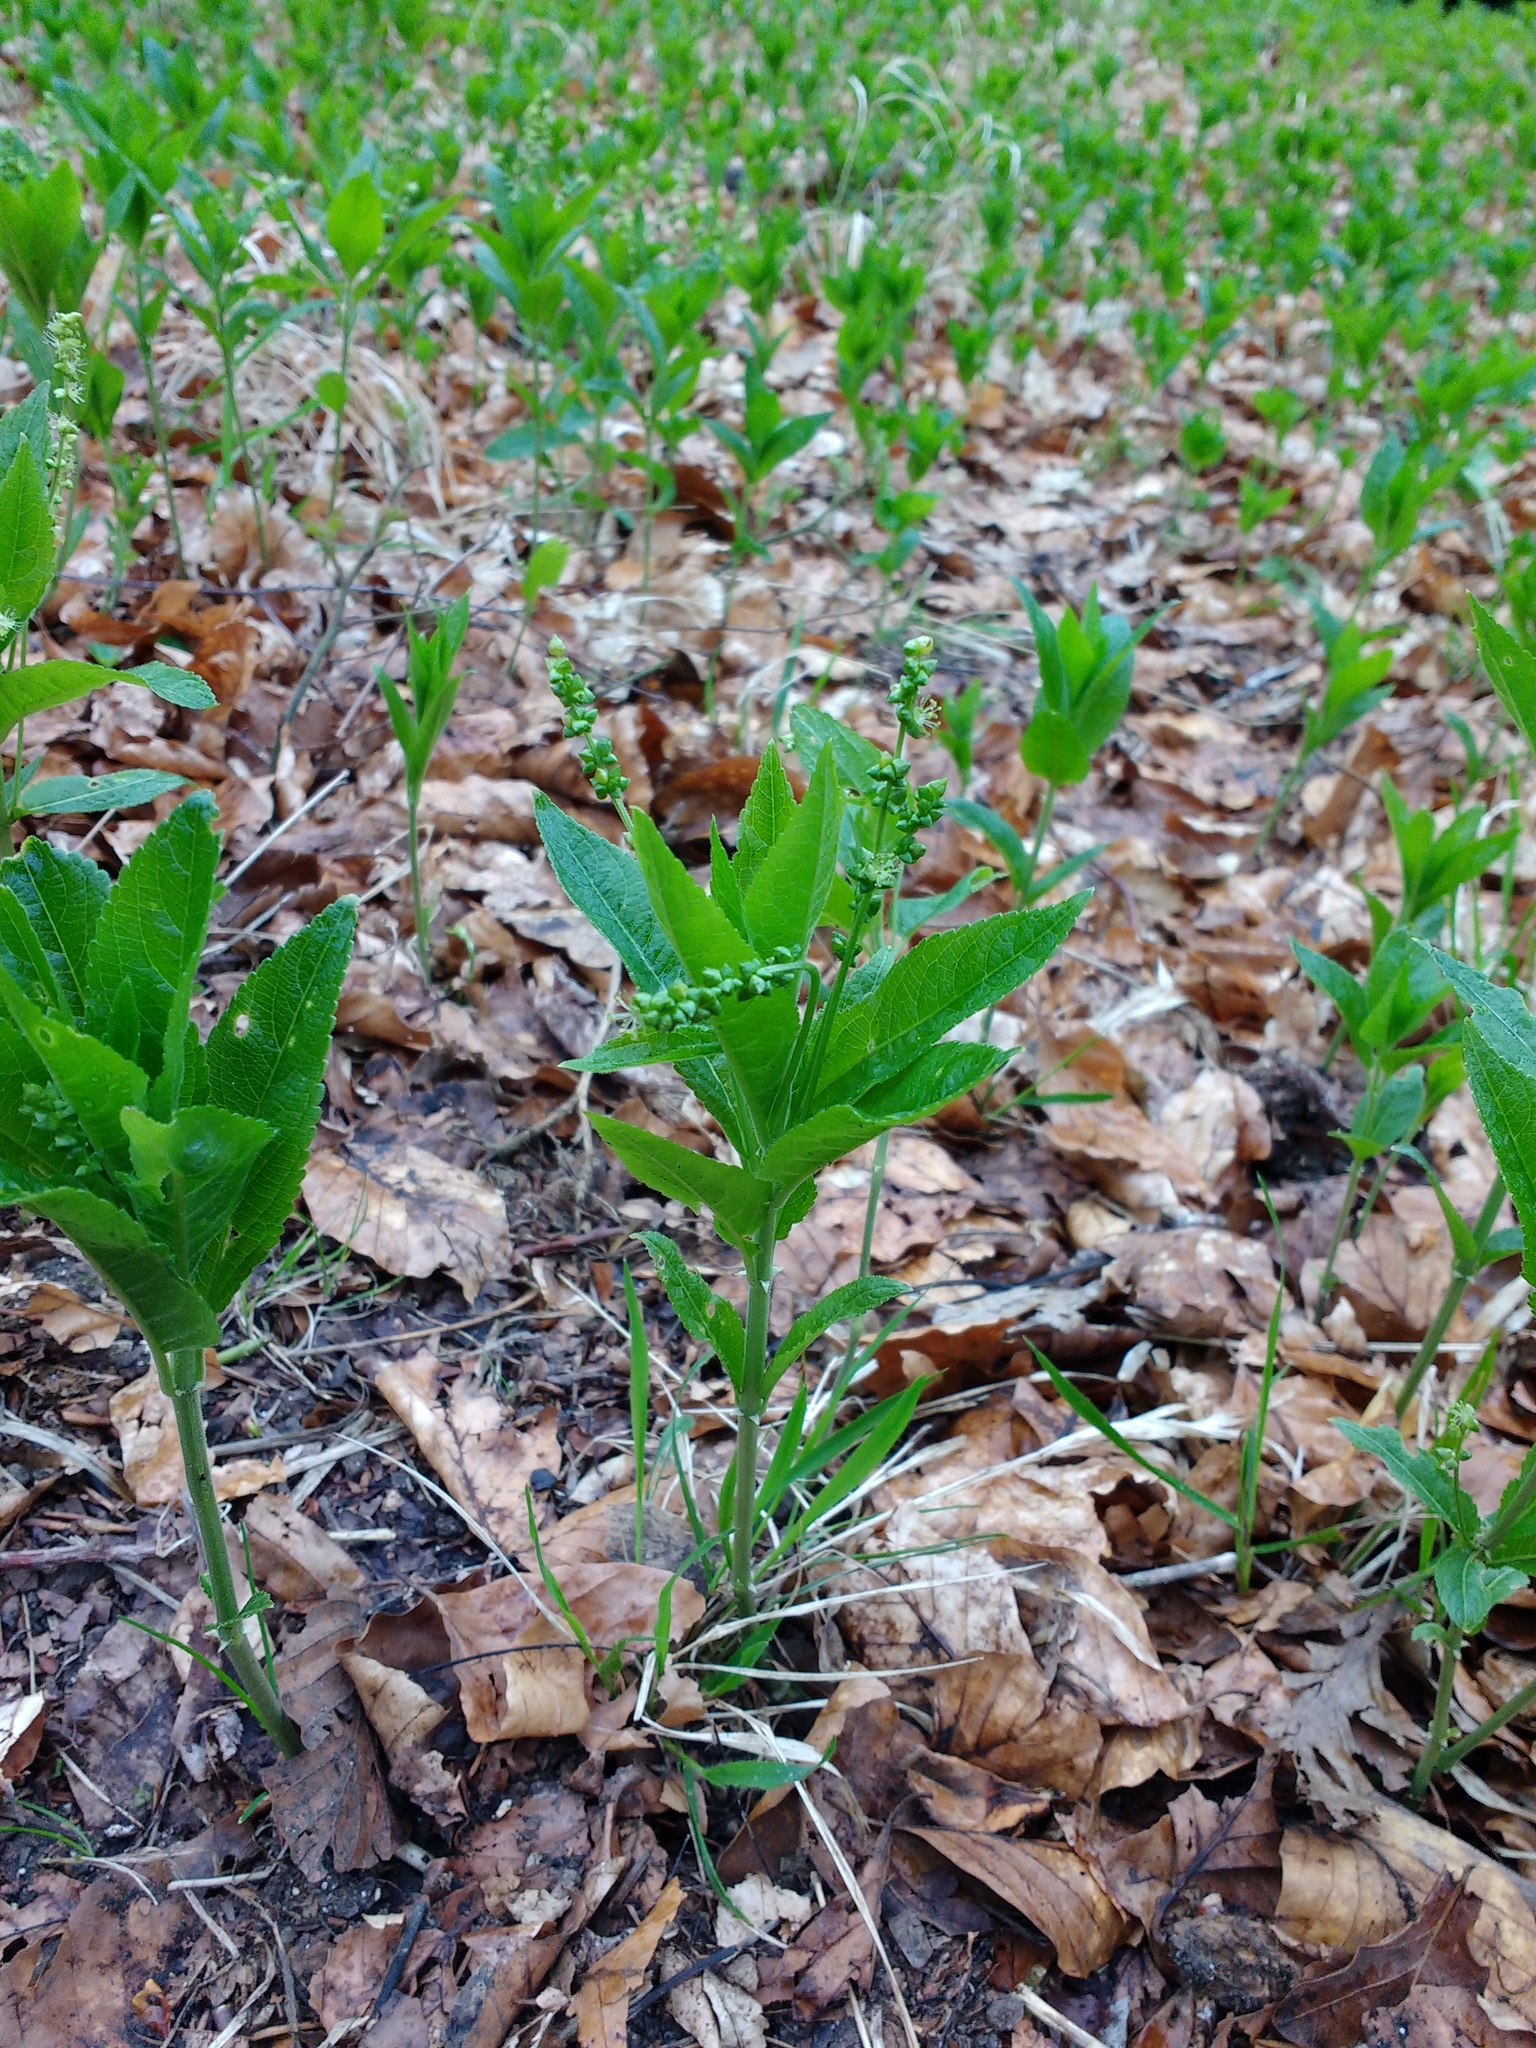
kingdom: Plantae
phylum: Tracheophyta
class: Magnoliopsida
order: Malpighiales
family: Euphorbiaceae
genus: Mercurialis
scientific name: Mercurialis perennis
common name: Dog mercury
